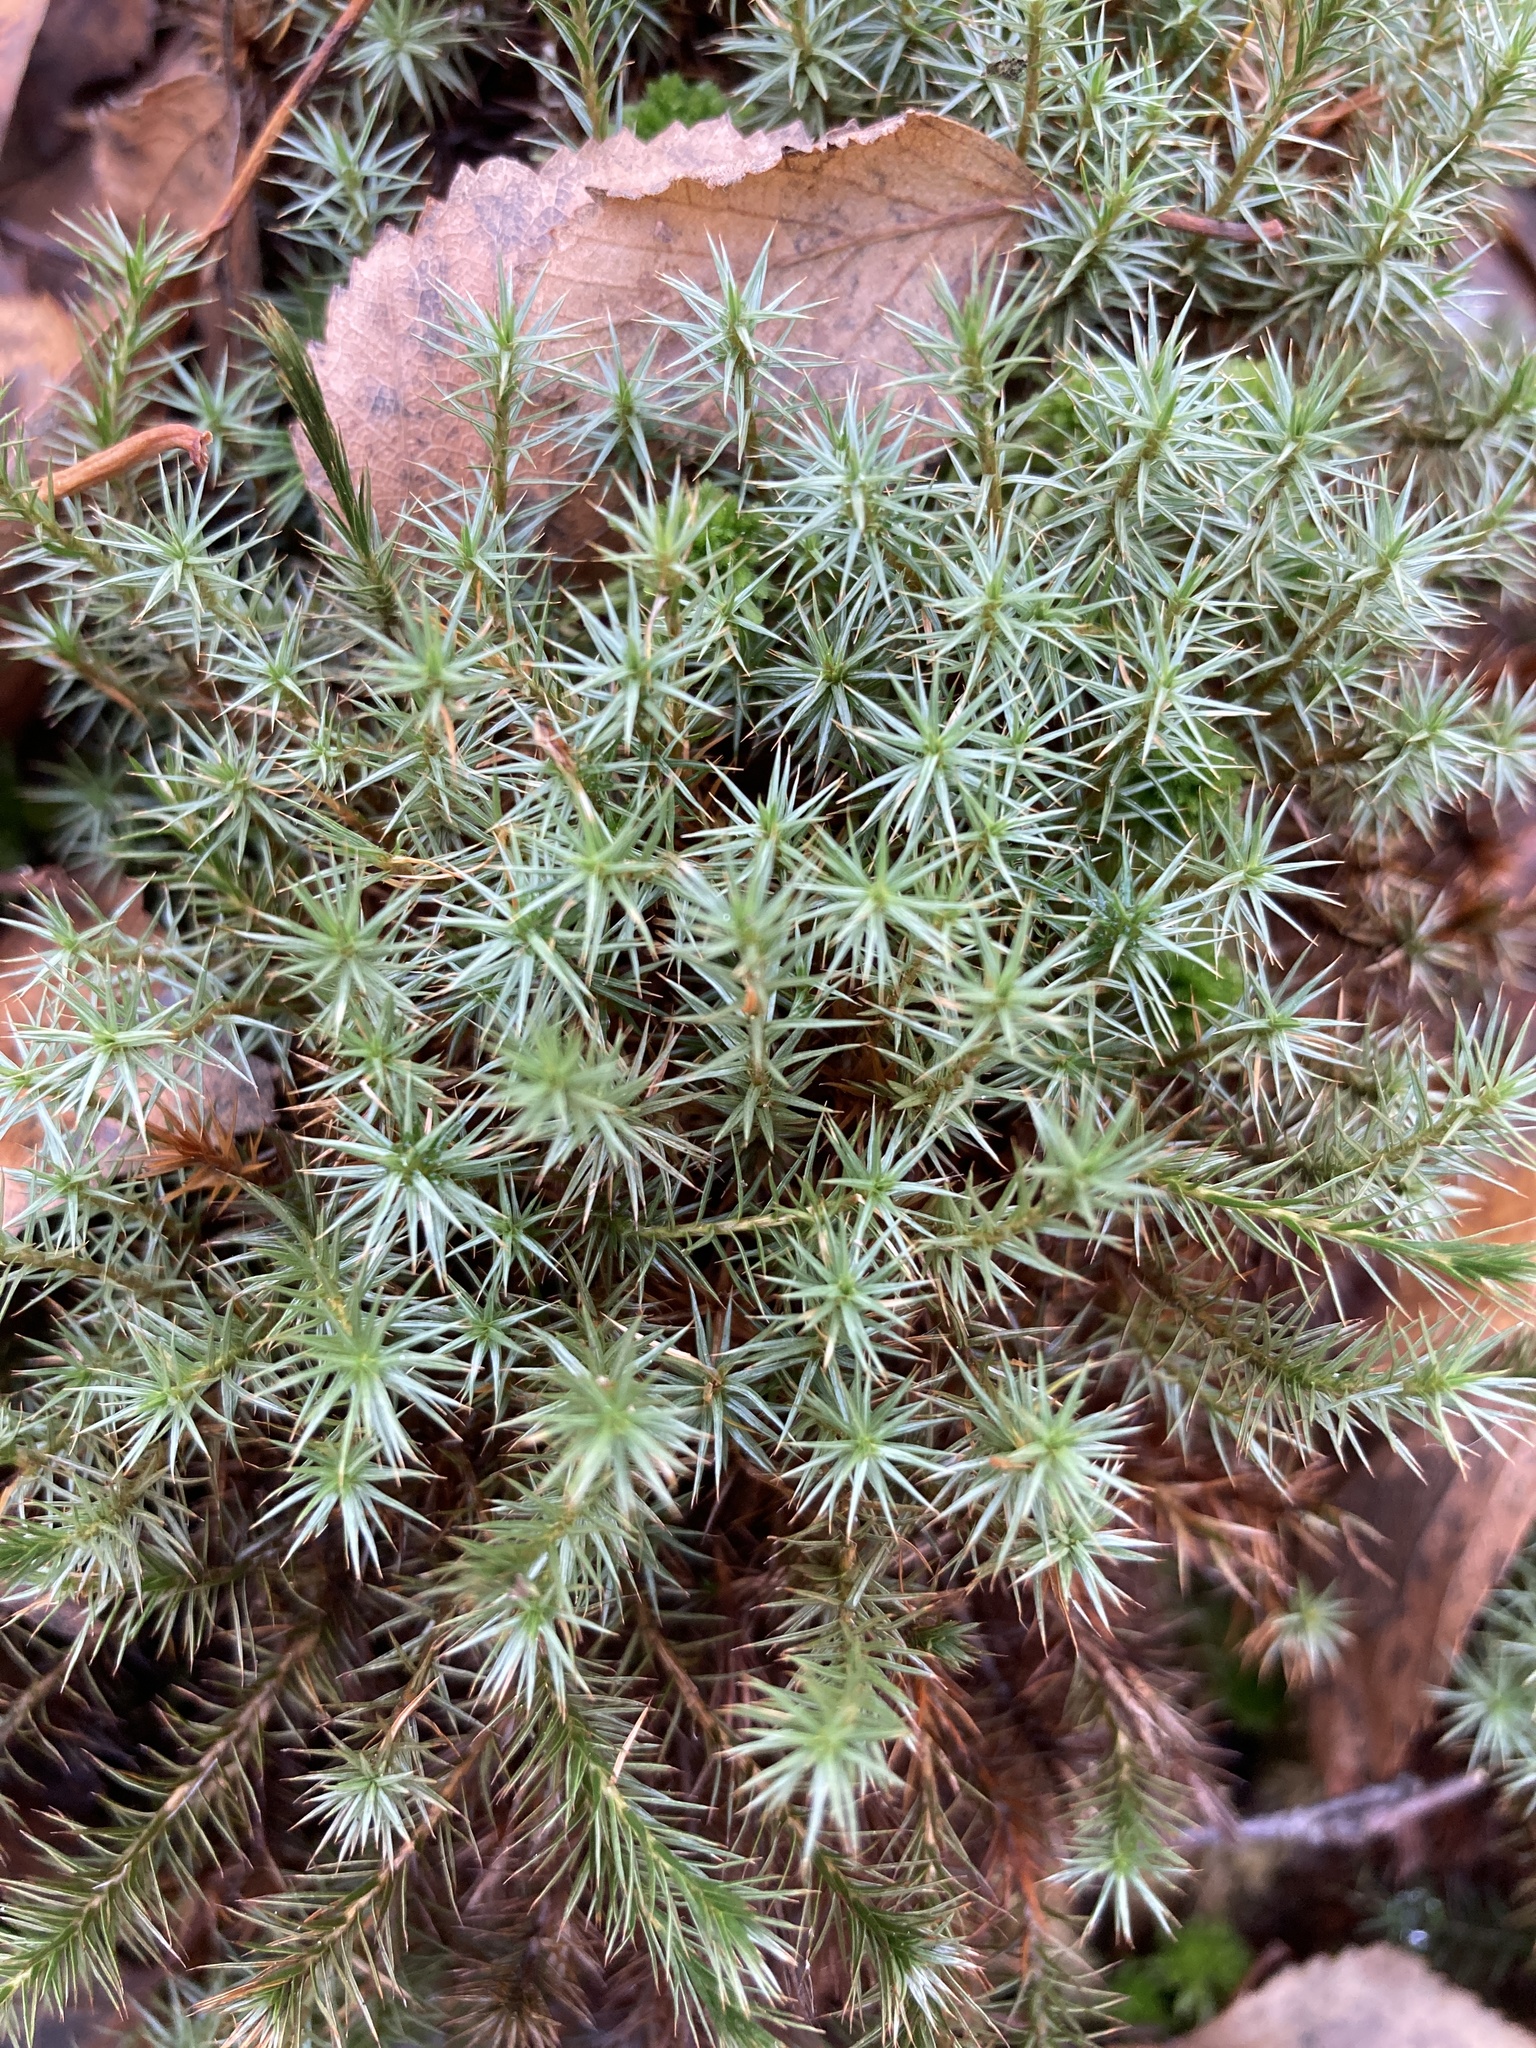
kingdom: Plantae
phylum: Bryophyta
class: Polytrichopsida
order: Polytrichales
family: Polytrichaceae
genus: Polytrichum
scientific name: Polytrichum juniperinum
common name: Juniper haircap moss
